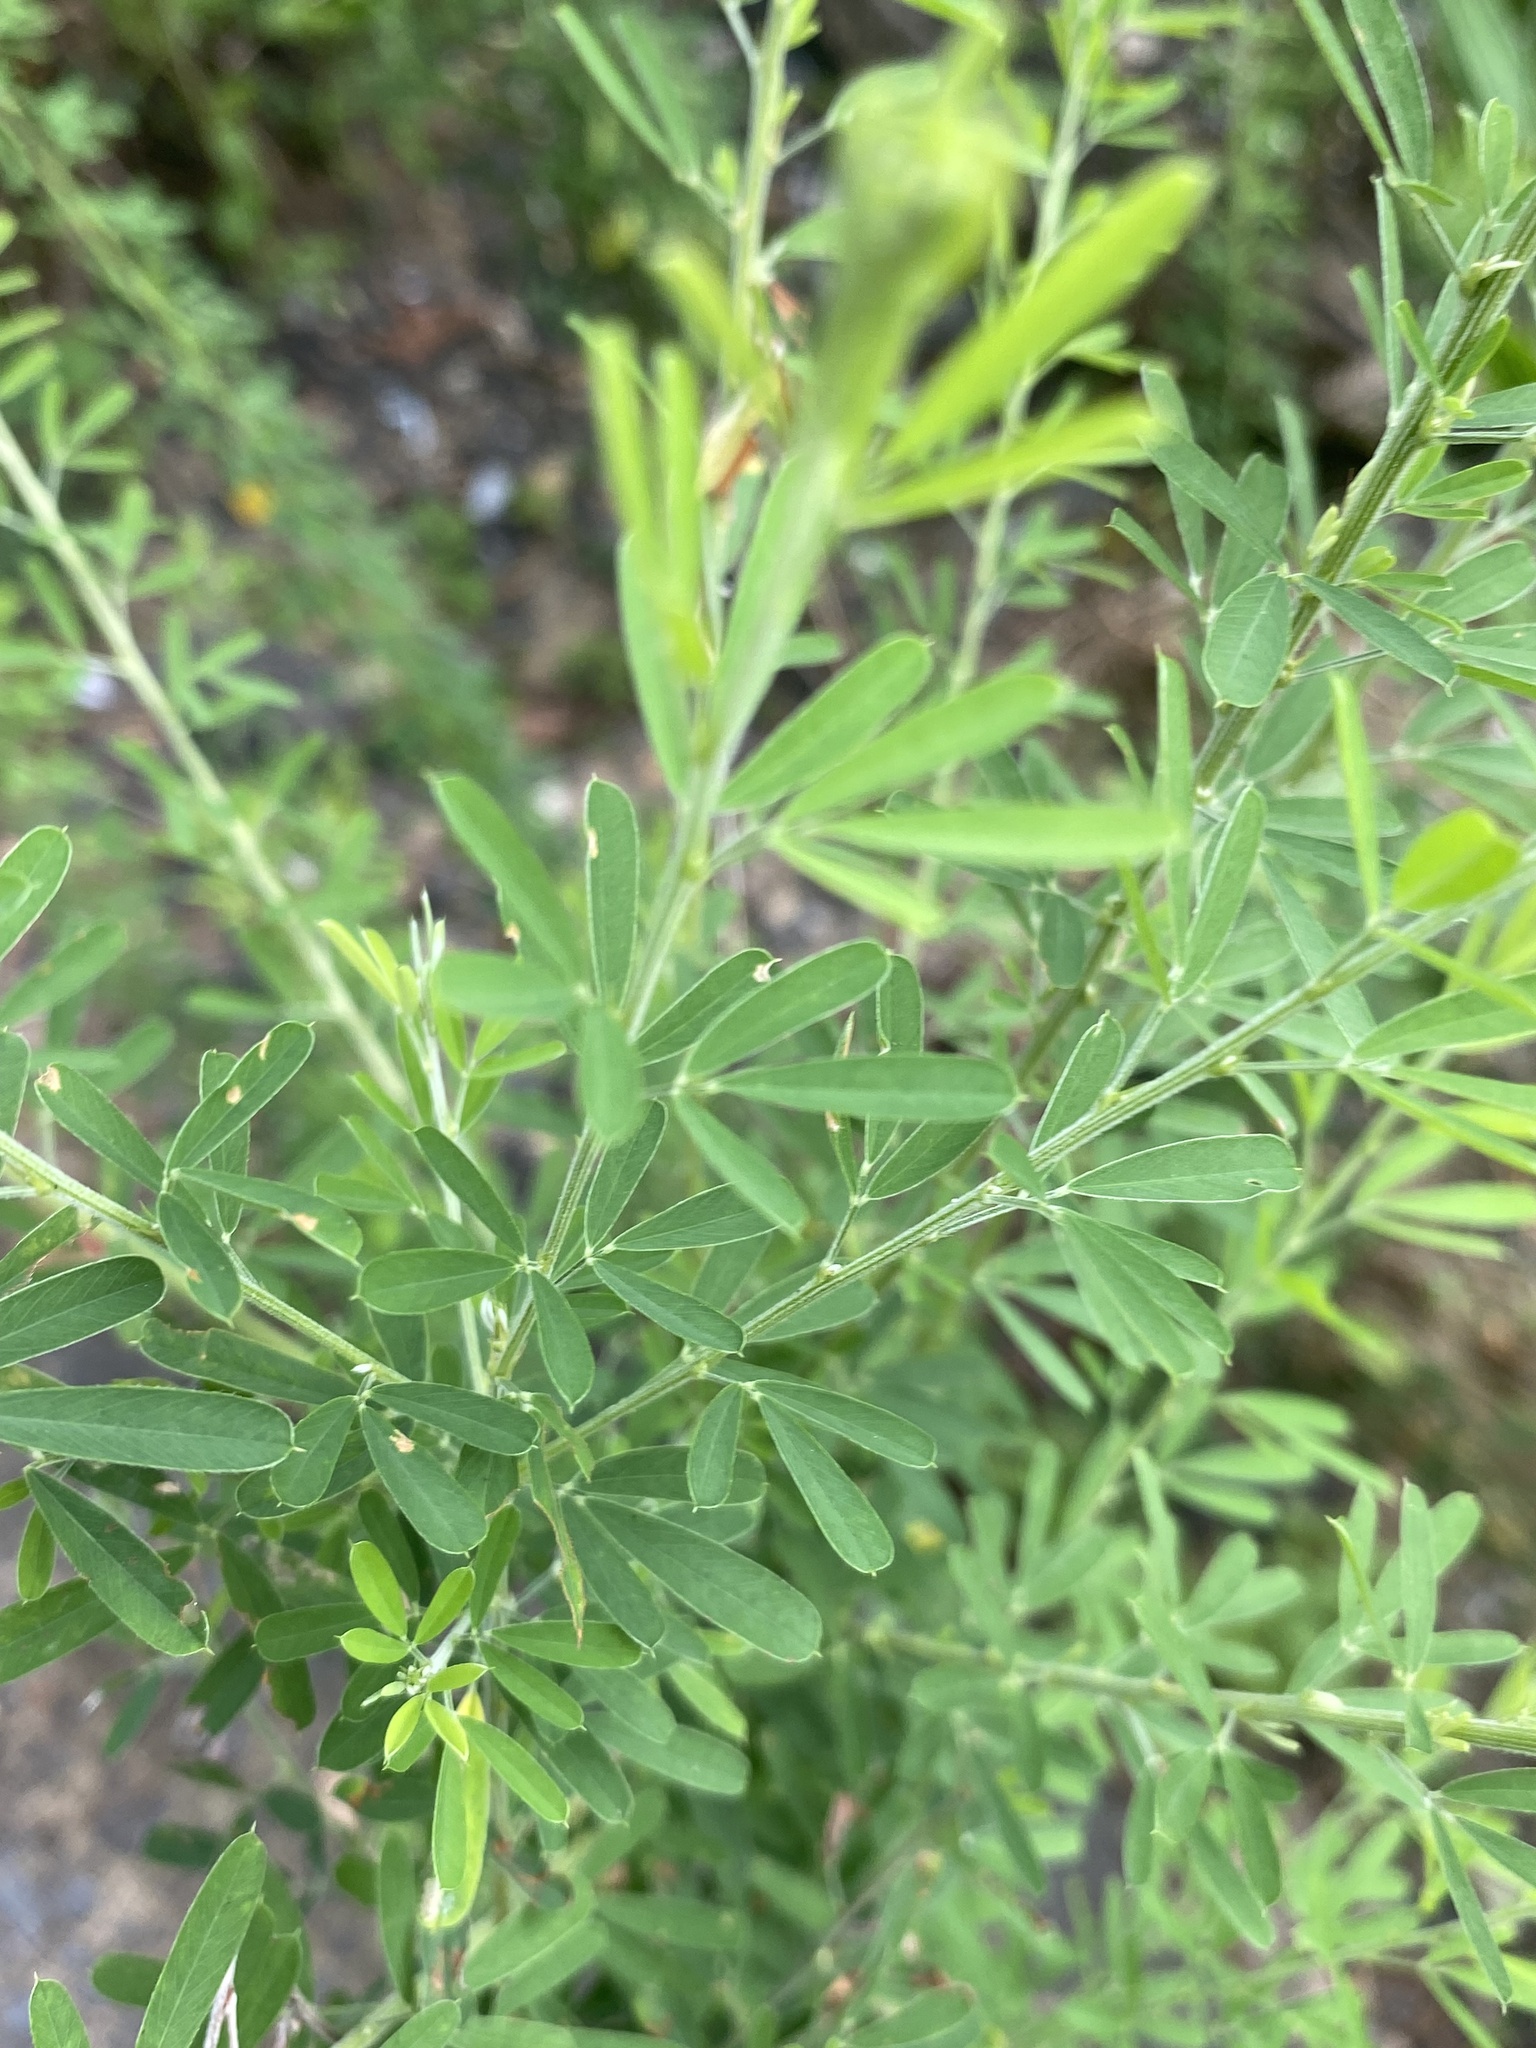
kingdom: Plantae
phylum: Tracheophyta
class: Magnoliopsida
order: Fabales
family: Fabaceae
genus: Lespedeza
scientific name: Lespedeza cuneata
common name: Chinese bush-clover
